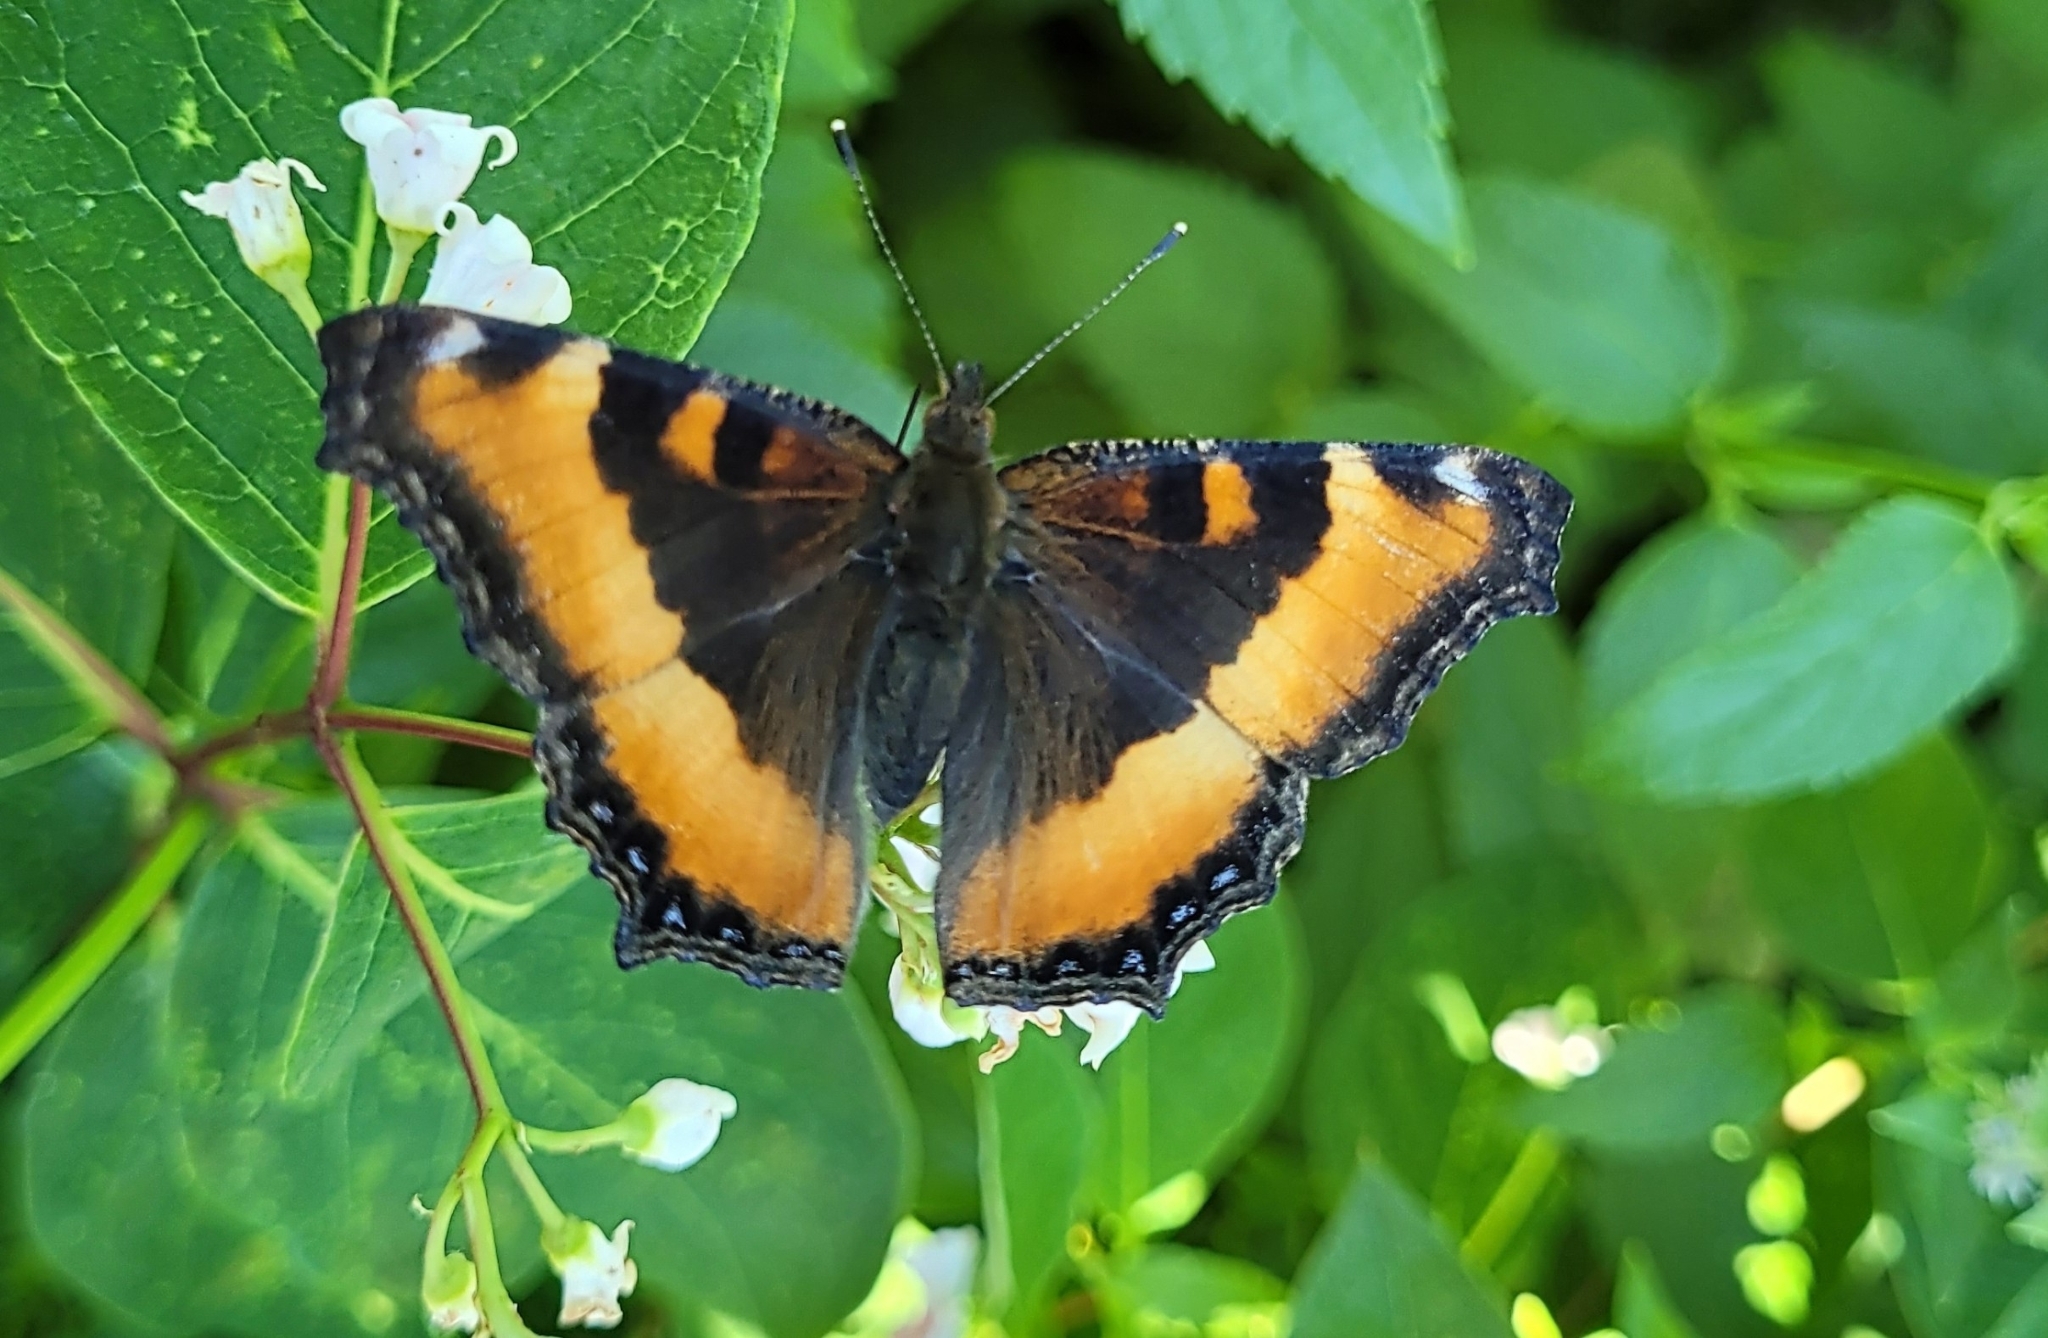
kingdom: Animalia
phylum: Arthropoda
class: Insecta
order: Lepidoptera
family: Nymphalidae
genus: Aglais
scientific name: Aglais milberti
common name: Milbert's tortoiseshell
